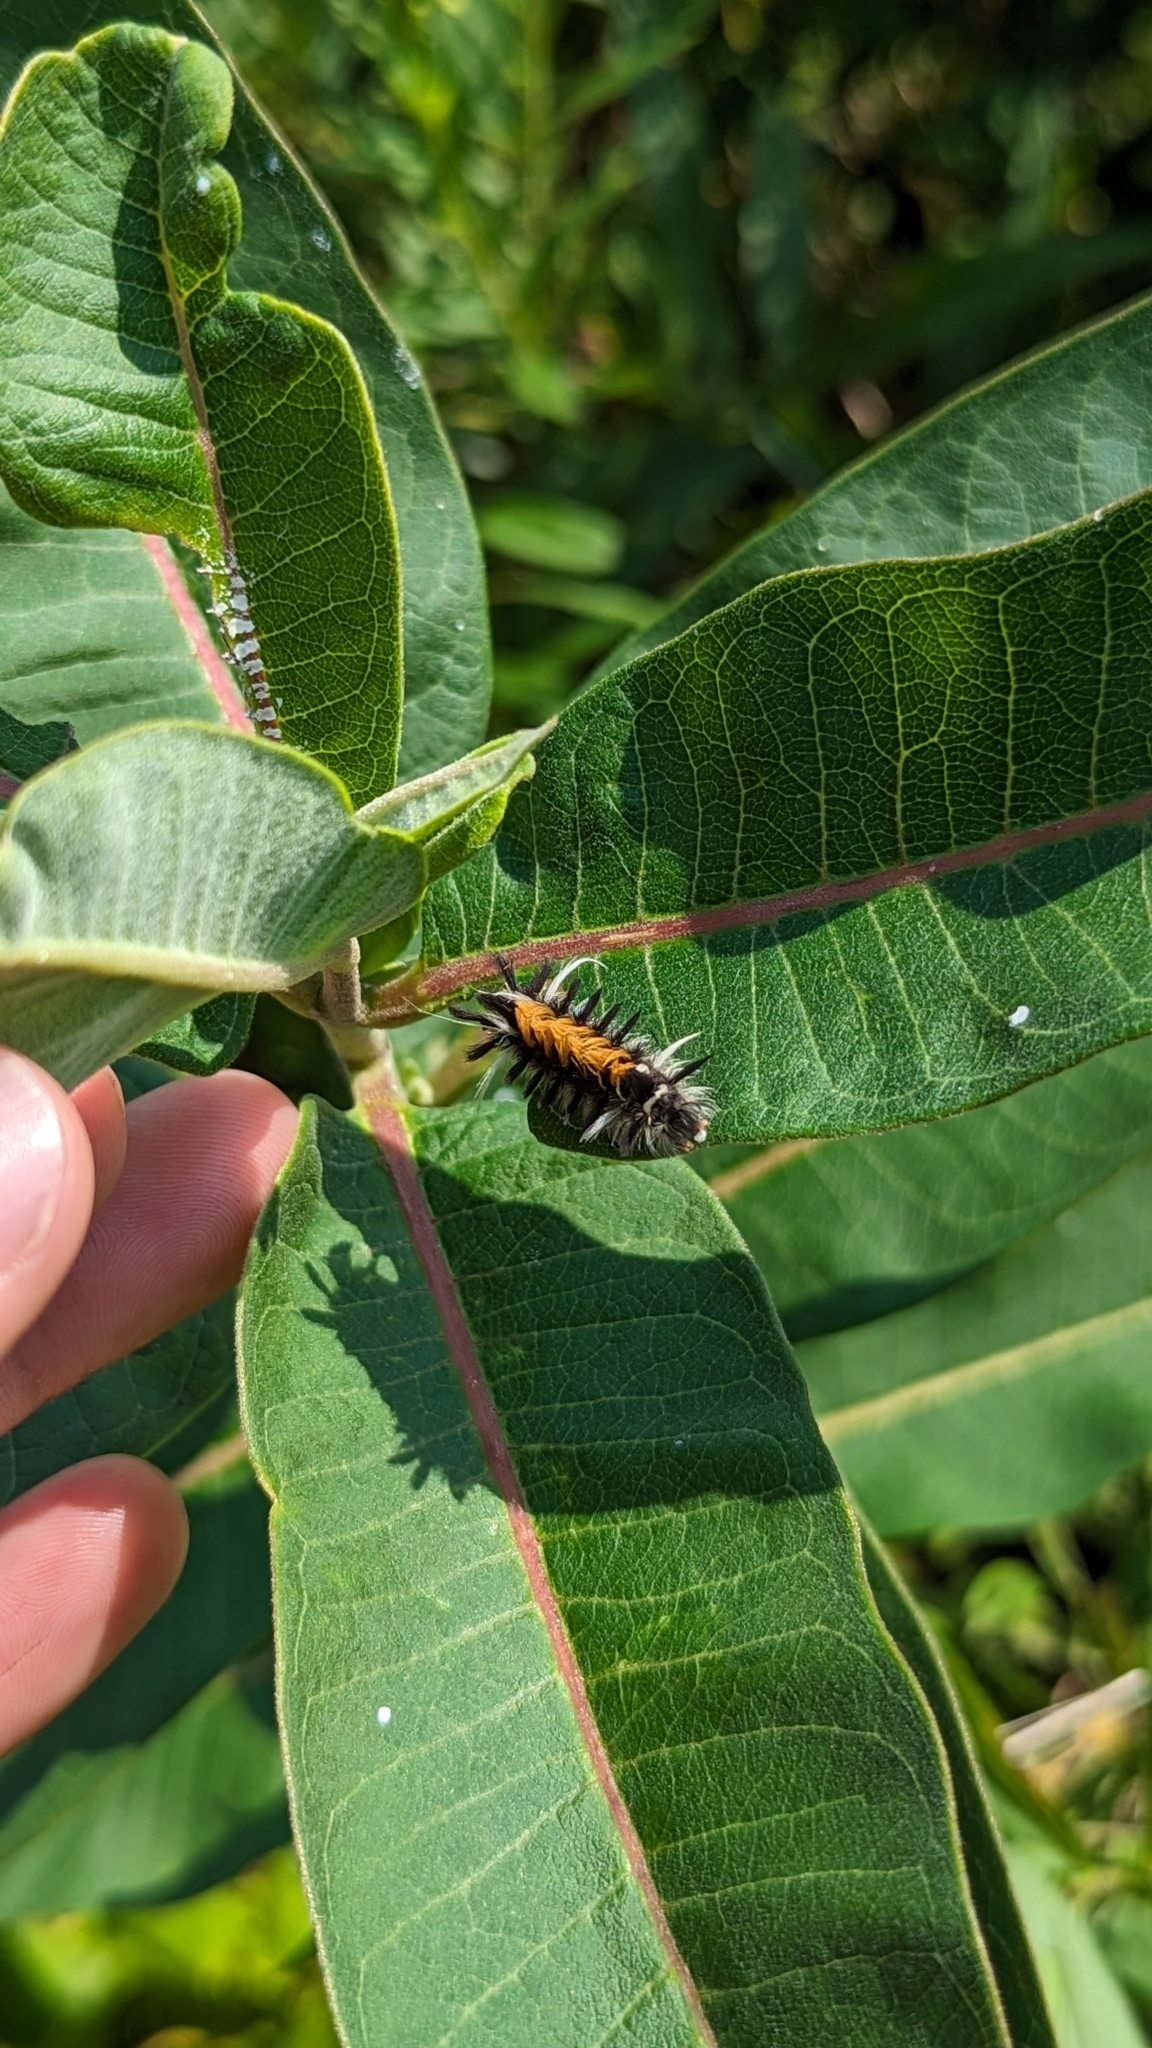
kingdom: Animalia
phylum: Arthropoda
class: Insecta
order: Lepidoptera
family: Erebidae
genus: Euchaetes
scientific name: Euchaetes egle
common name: Milkweed tussock moth
